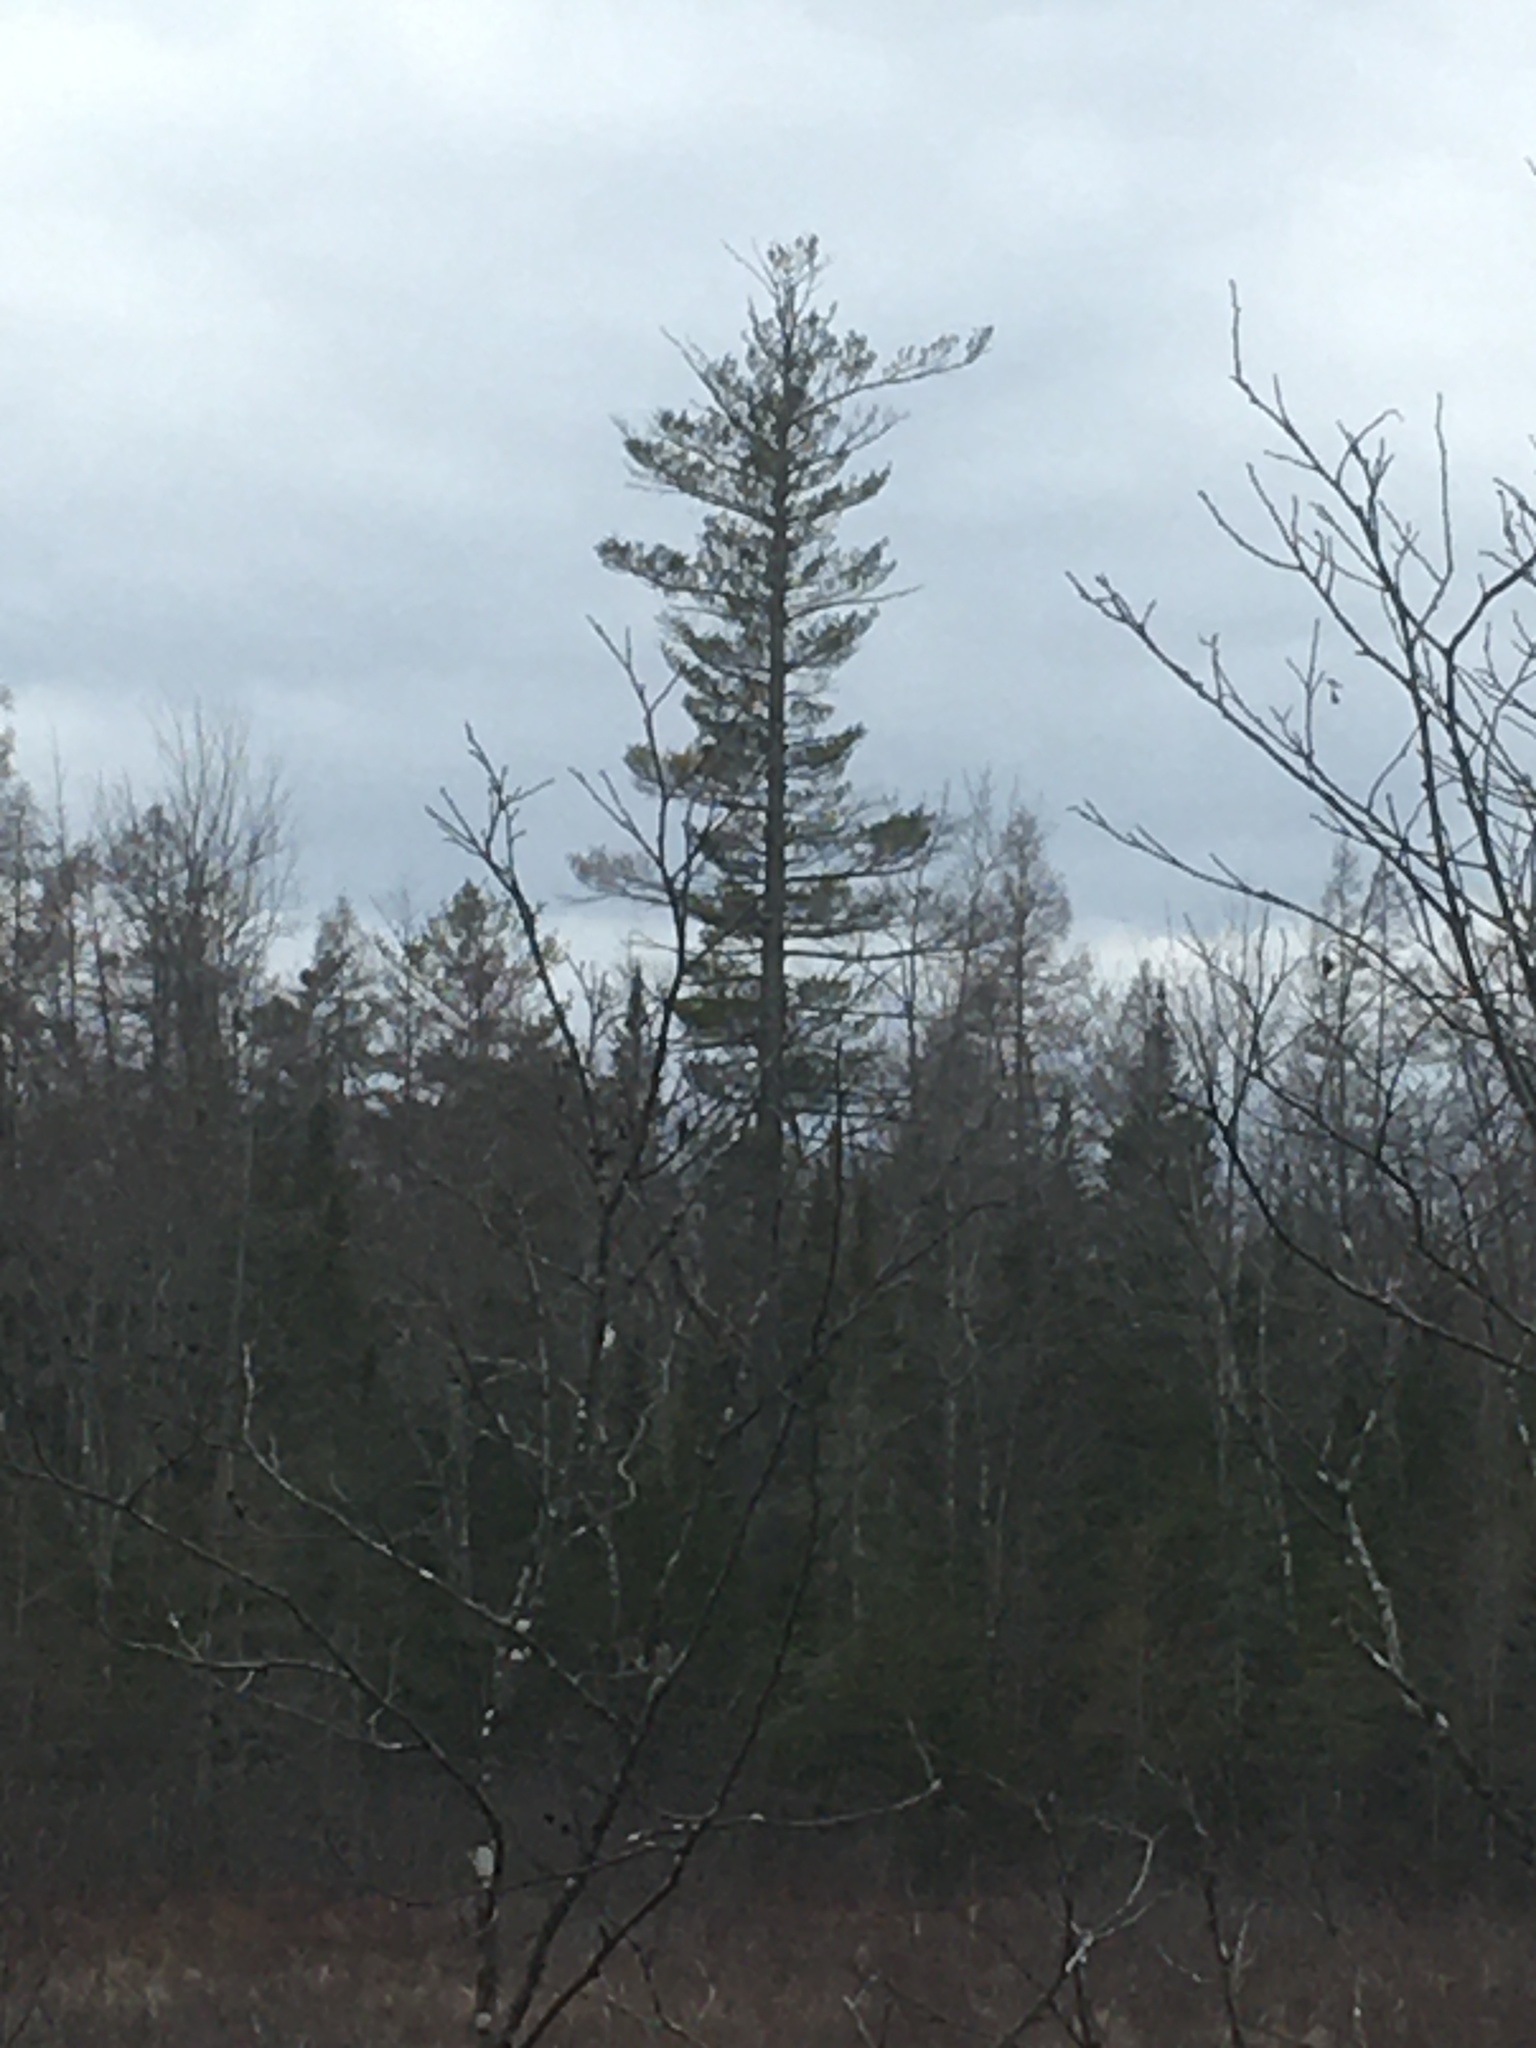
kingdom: Plantae
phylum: Tracheophyta
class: Pinopsida
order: Pinales
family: Pinaceae
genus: Pinus
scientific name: Pinus strobus
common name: Weymouth pine
